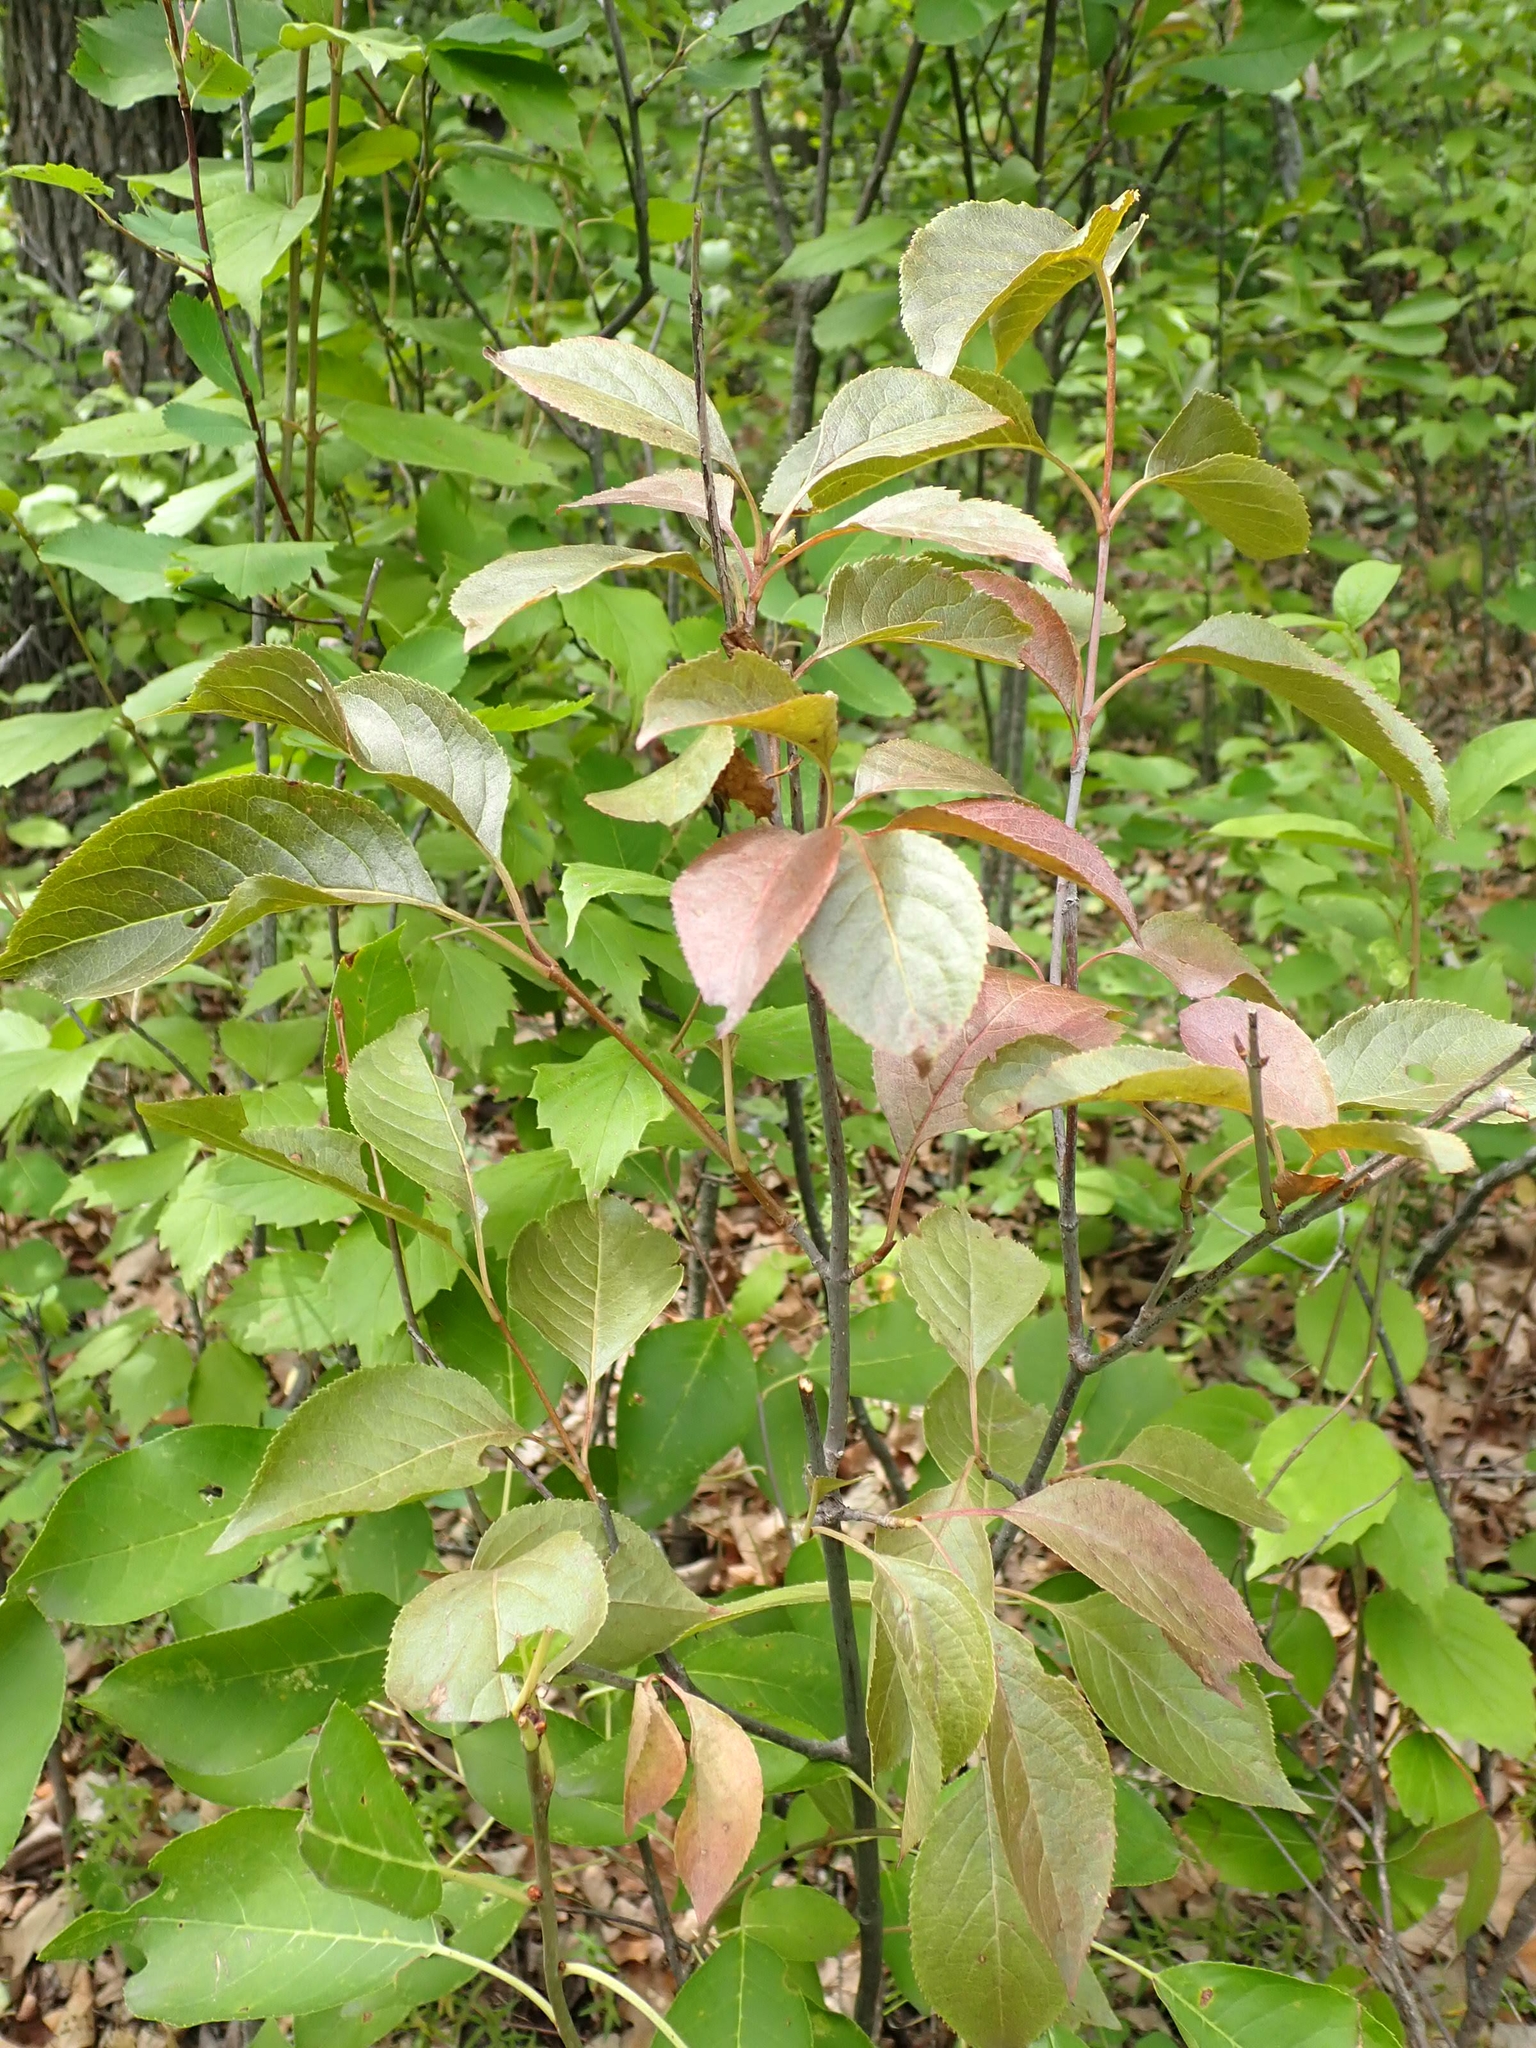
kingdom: Plantae
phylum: Tracheophyta
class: Magnoliopsida
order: Dipsacales
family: Viburnaceae
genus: Viburnum
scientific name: Viburnum lentago
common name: Black haw
